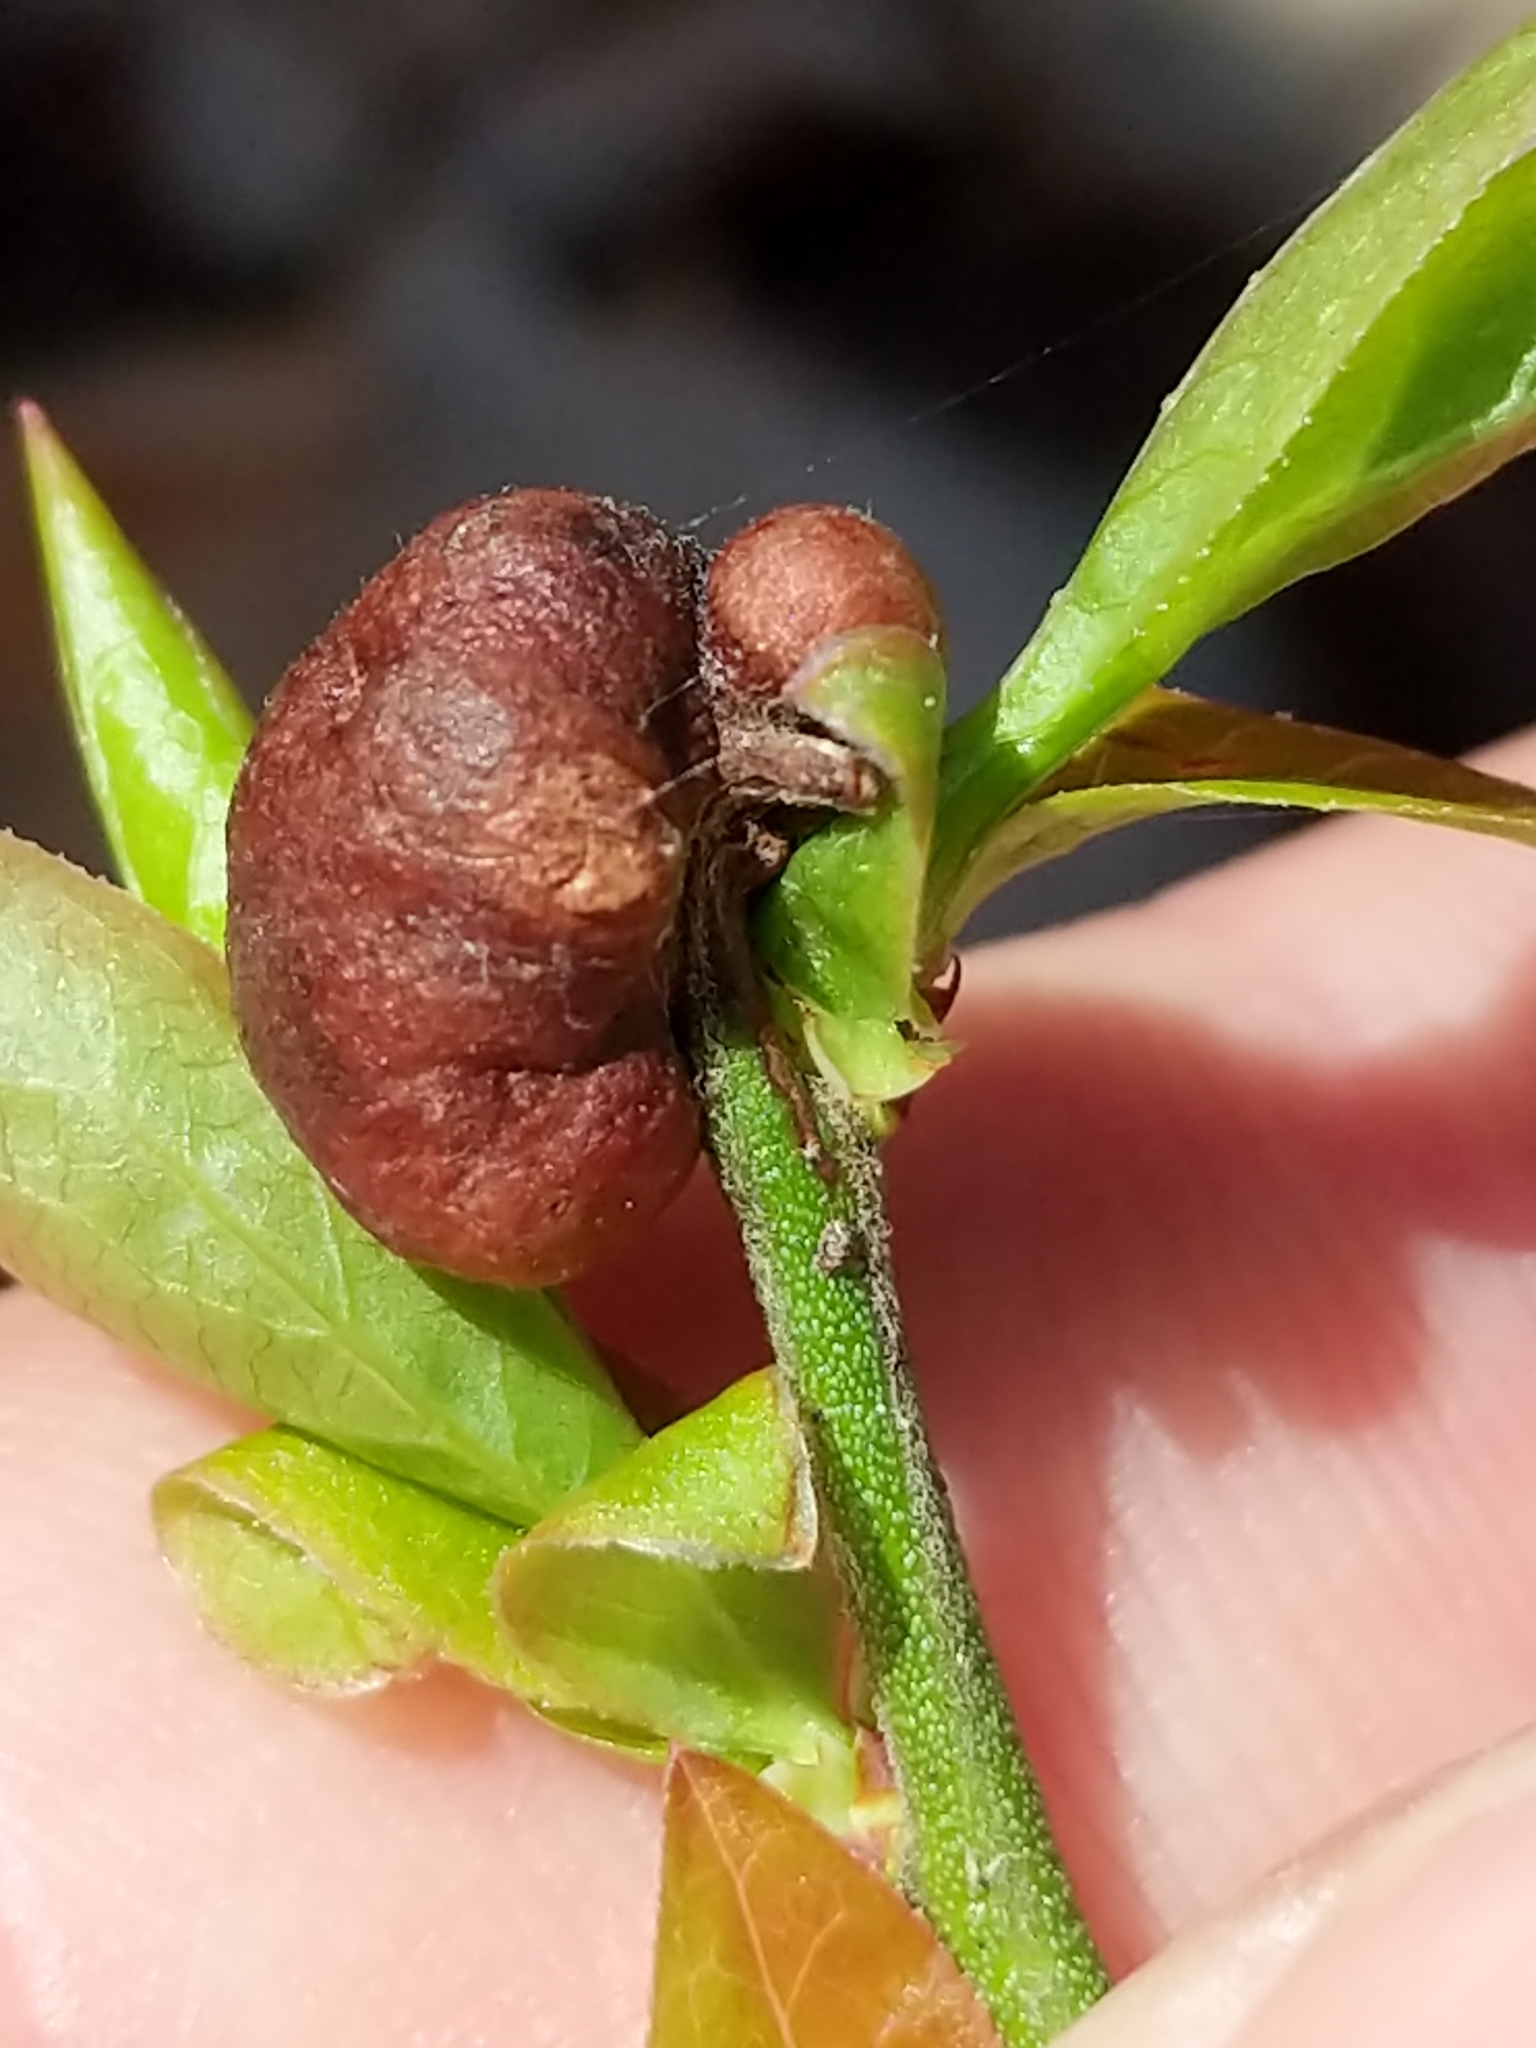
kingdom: Animalia
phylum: Arthropoda
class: Insecta
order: Hymenoptera
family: Pteromalidae
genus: Hemadas
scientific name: Hemadas nubilipennis
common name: Blueberry stem gall wasp
